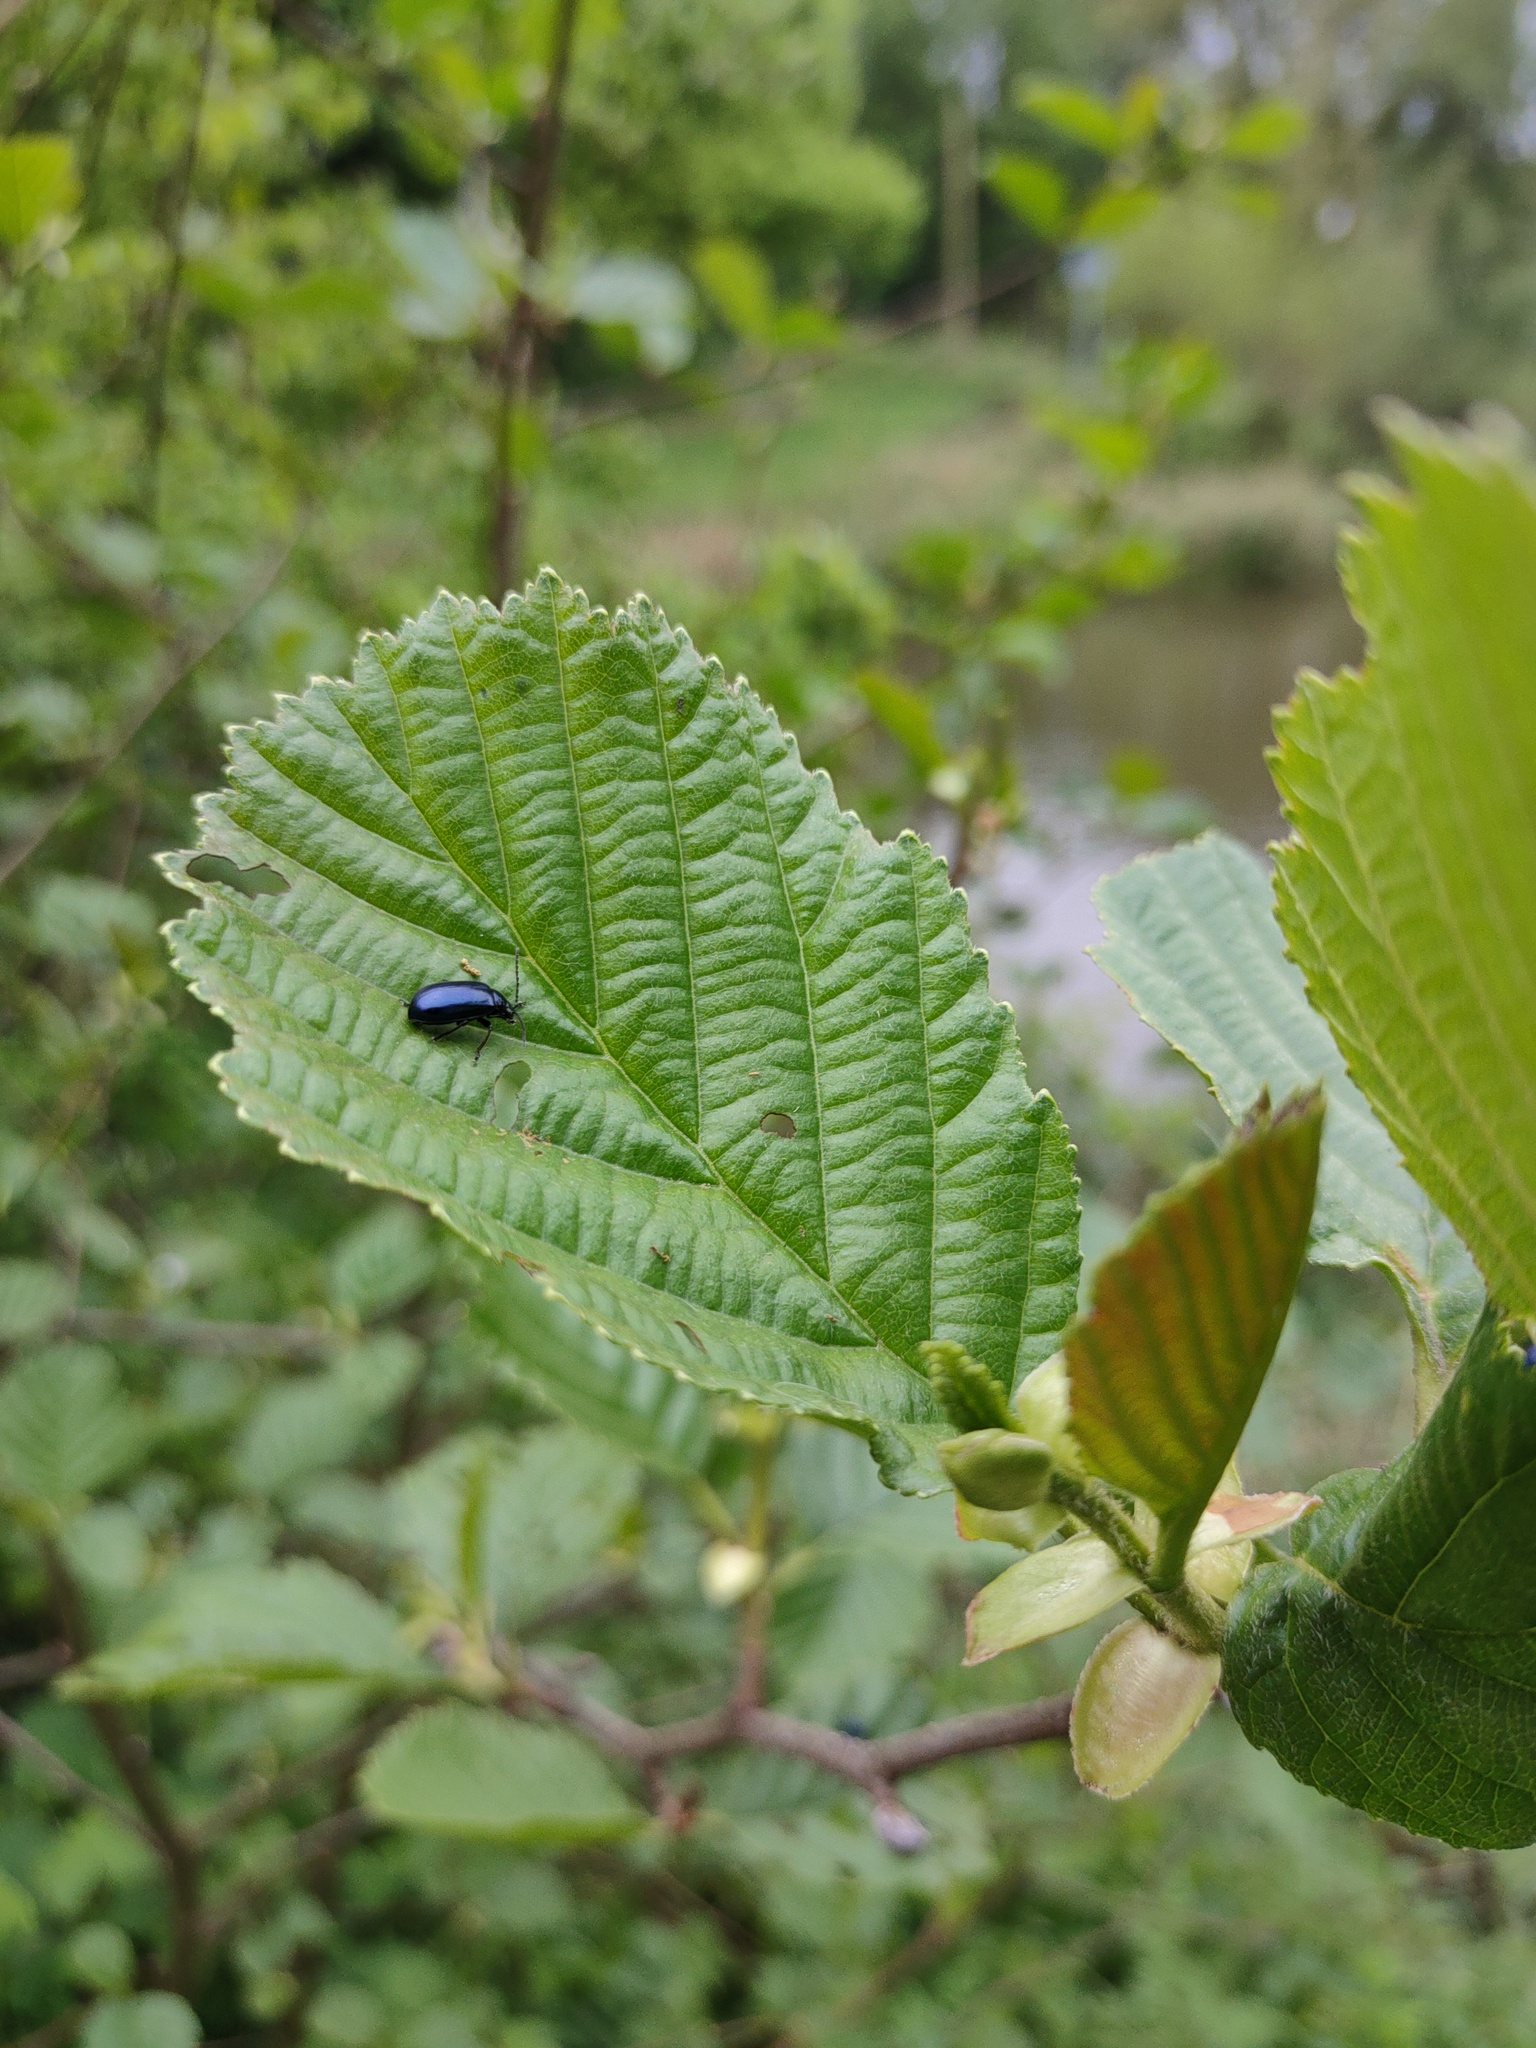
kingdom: Animalia
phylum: Arthropoda
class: Insecta
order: Coleoptera
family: Chrysomelidae
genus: Agelastica
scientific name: Agelastica alni
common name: Alder leaf beetle
